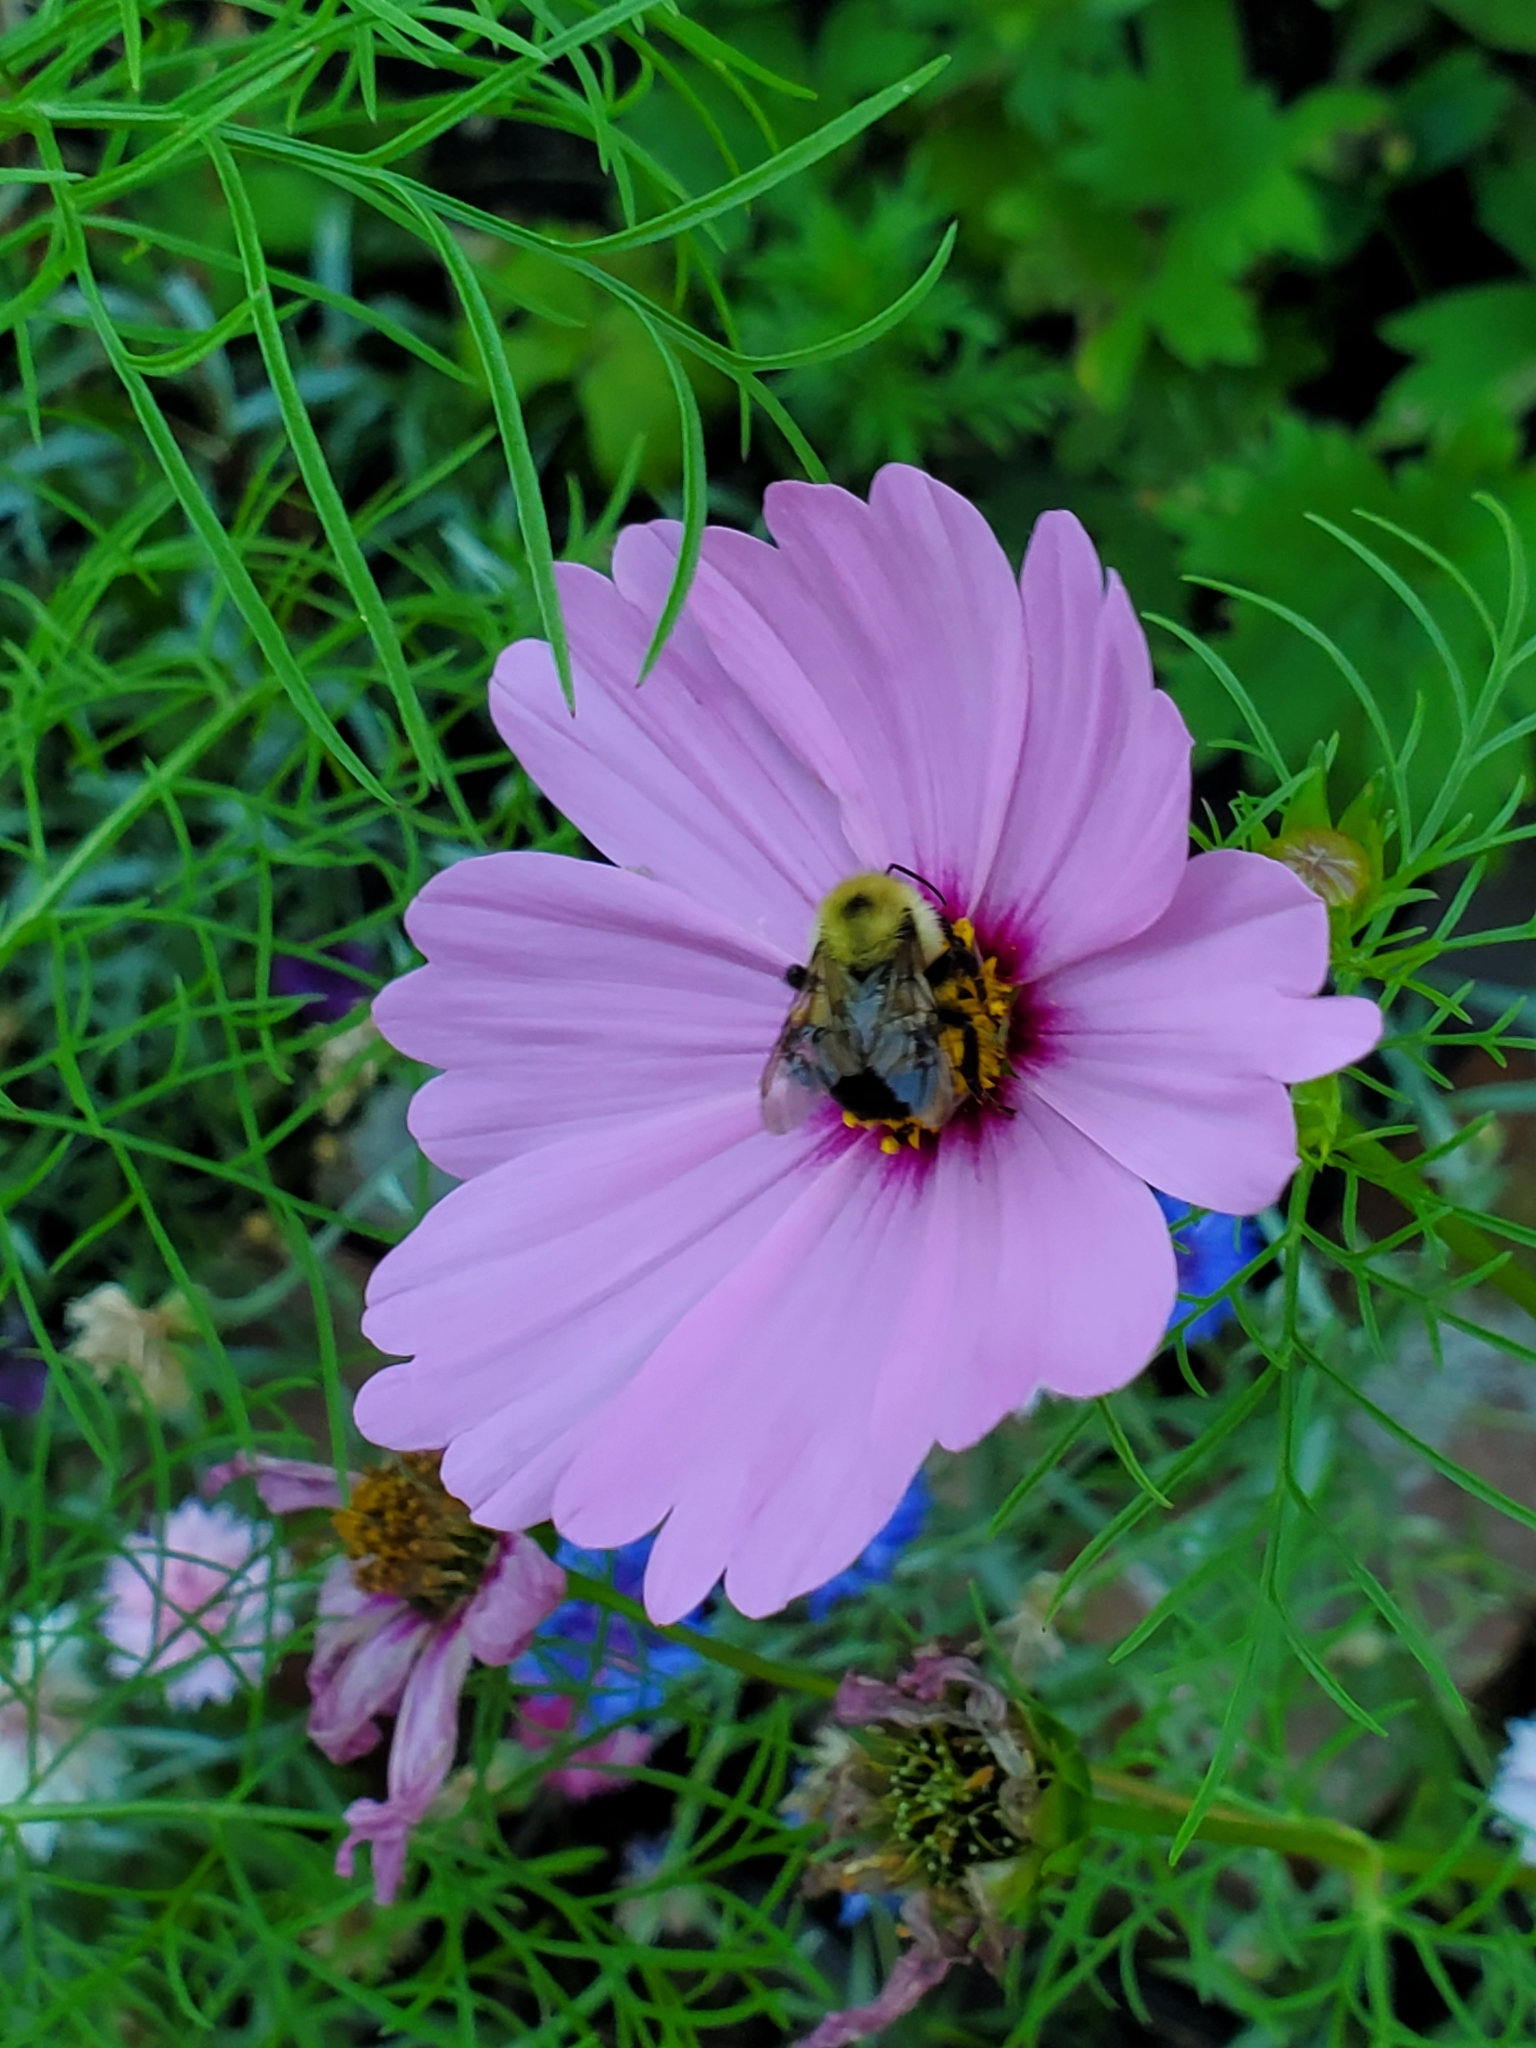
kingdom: Animalia
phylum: Arthropoda
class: Insecta
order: Hymenoptera
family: Apidae
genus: Bombus
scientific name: Bombus bimaculatus
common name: Two-spotted bumble bee
